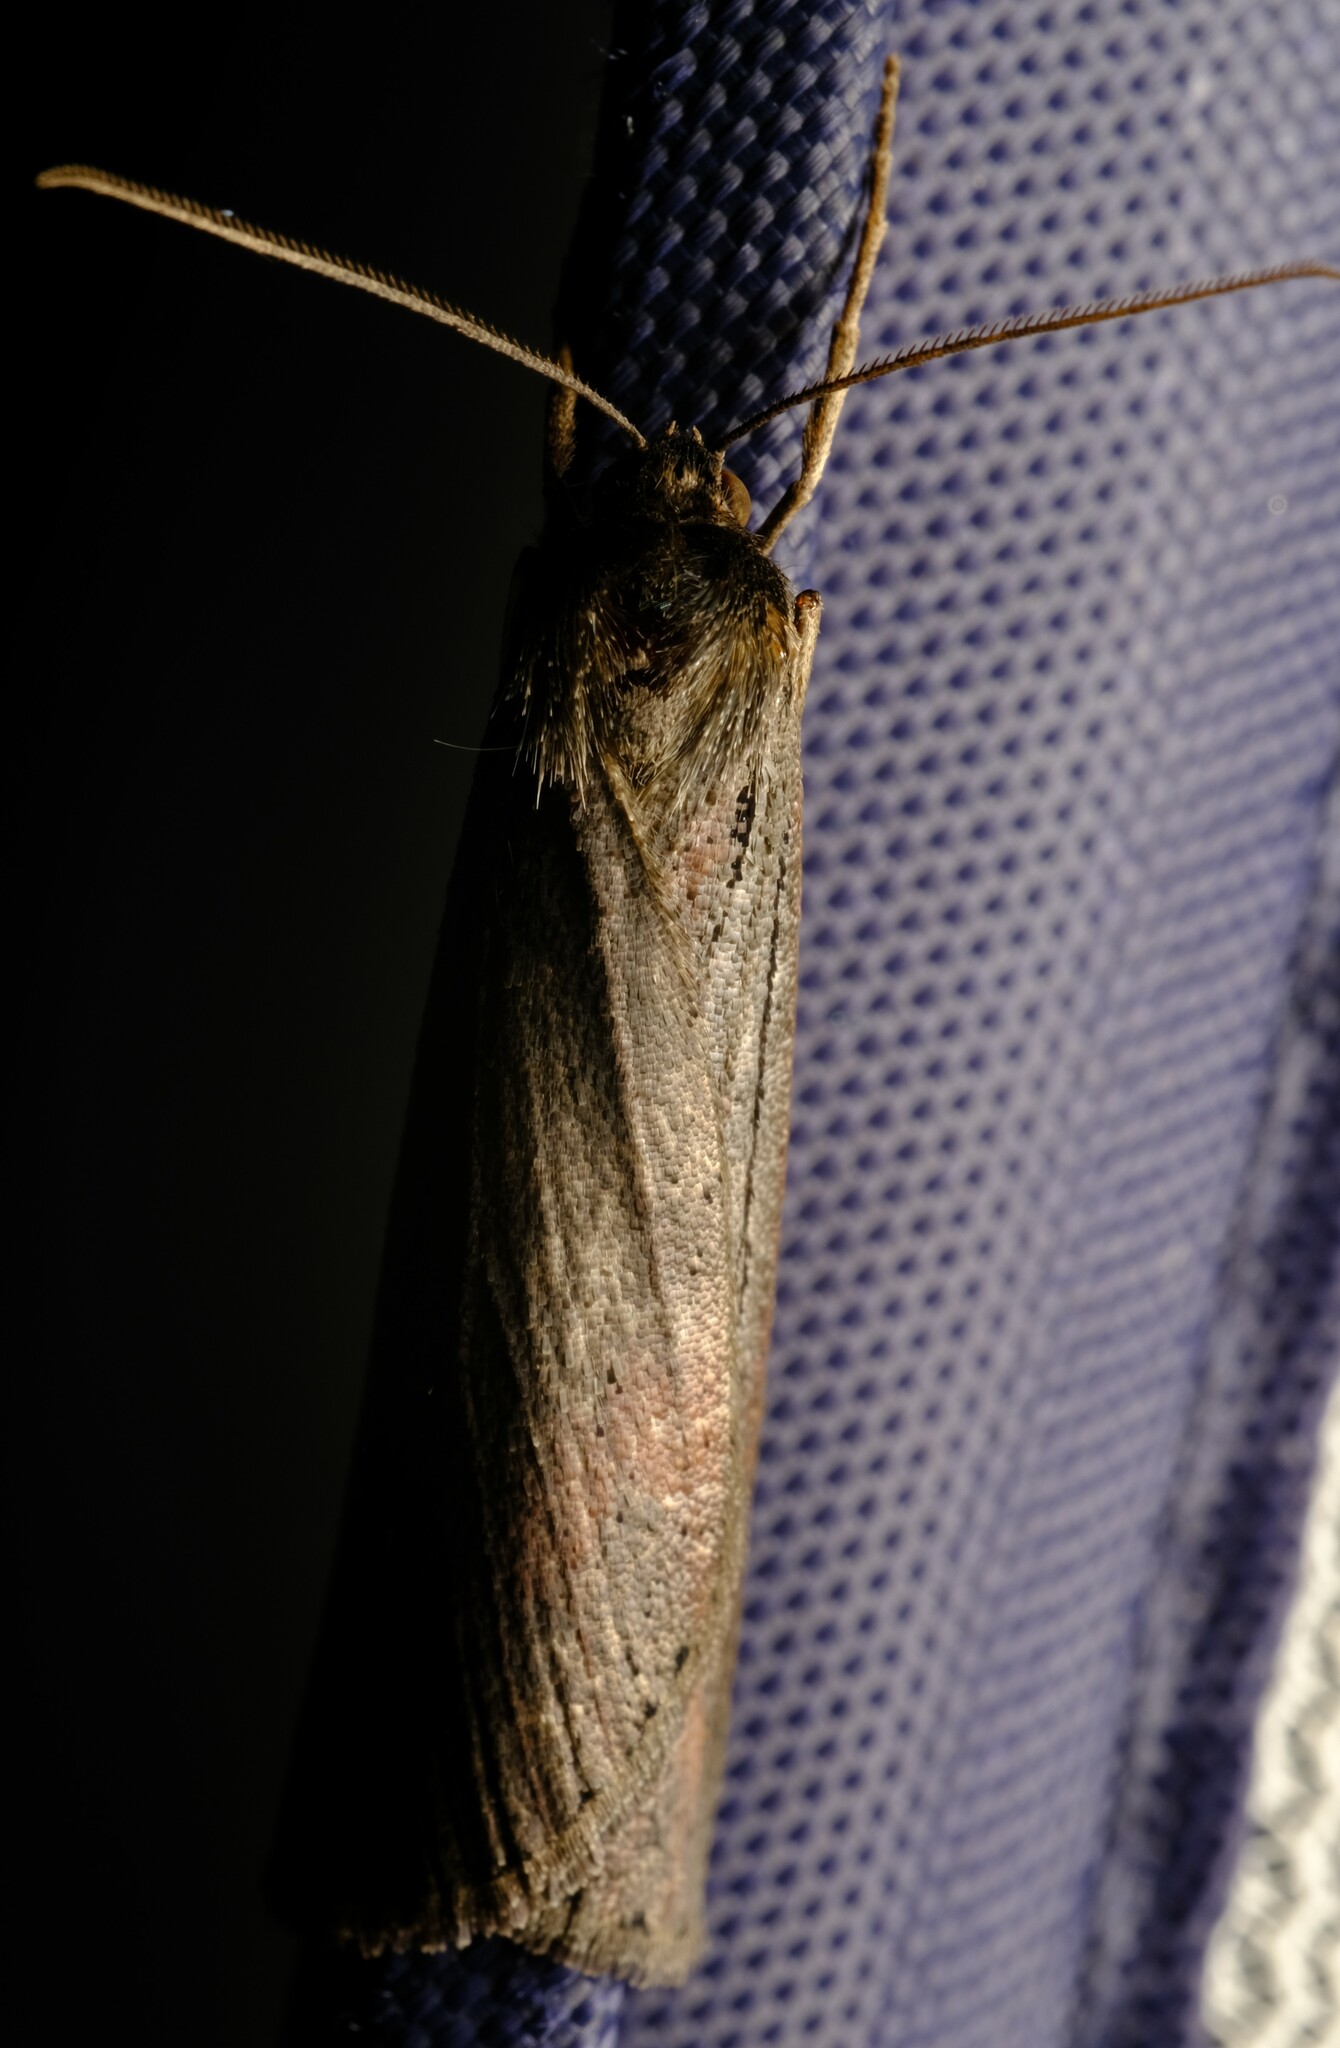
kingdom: Animalia
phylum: Arthropoda
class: Insecta
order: Lepidoptera
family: Geometridae
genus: Chlenias
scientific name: Chlenias seminigra
